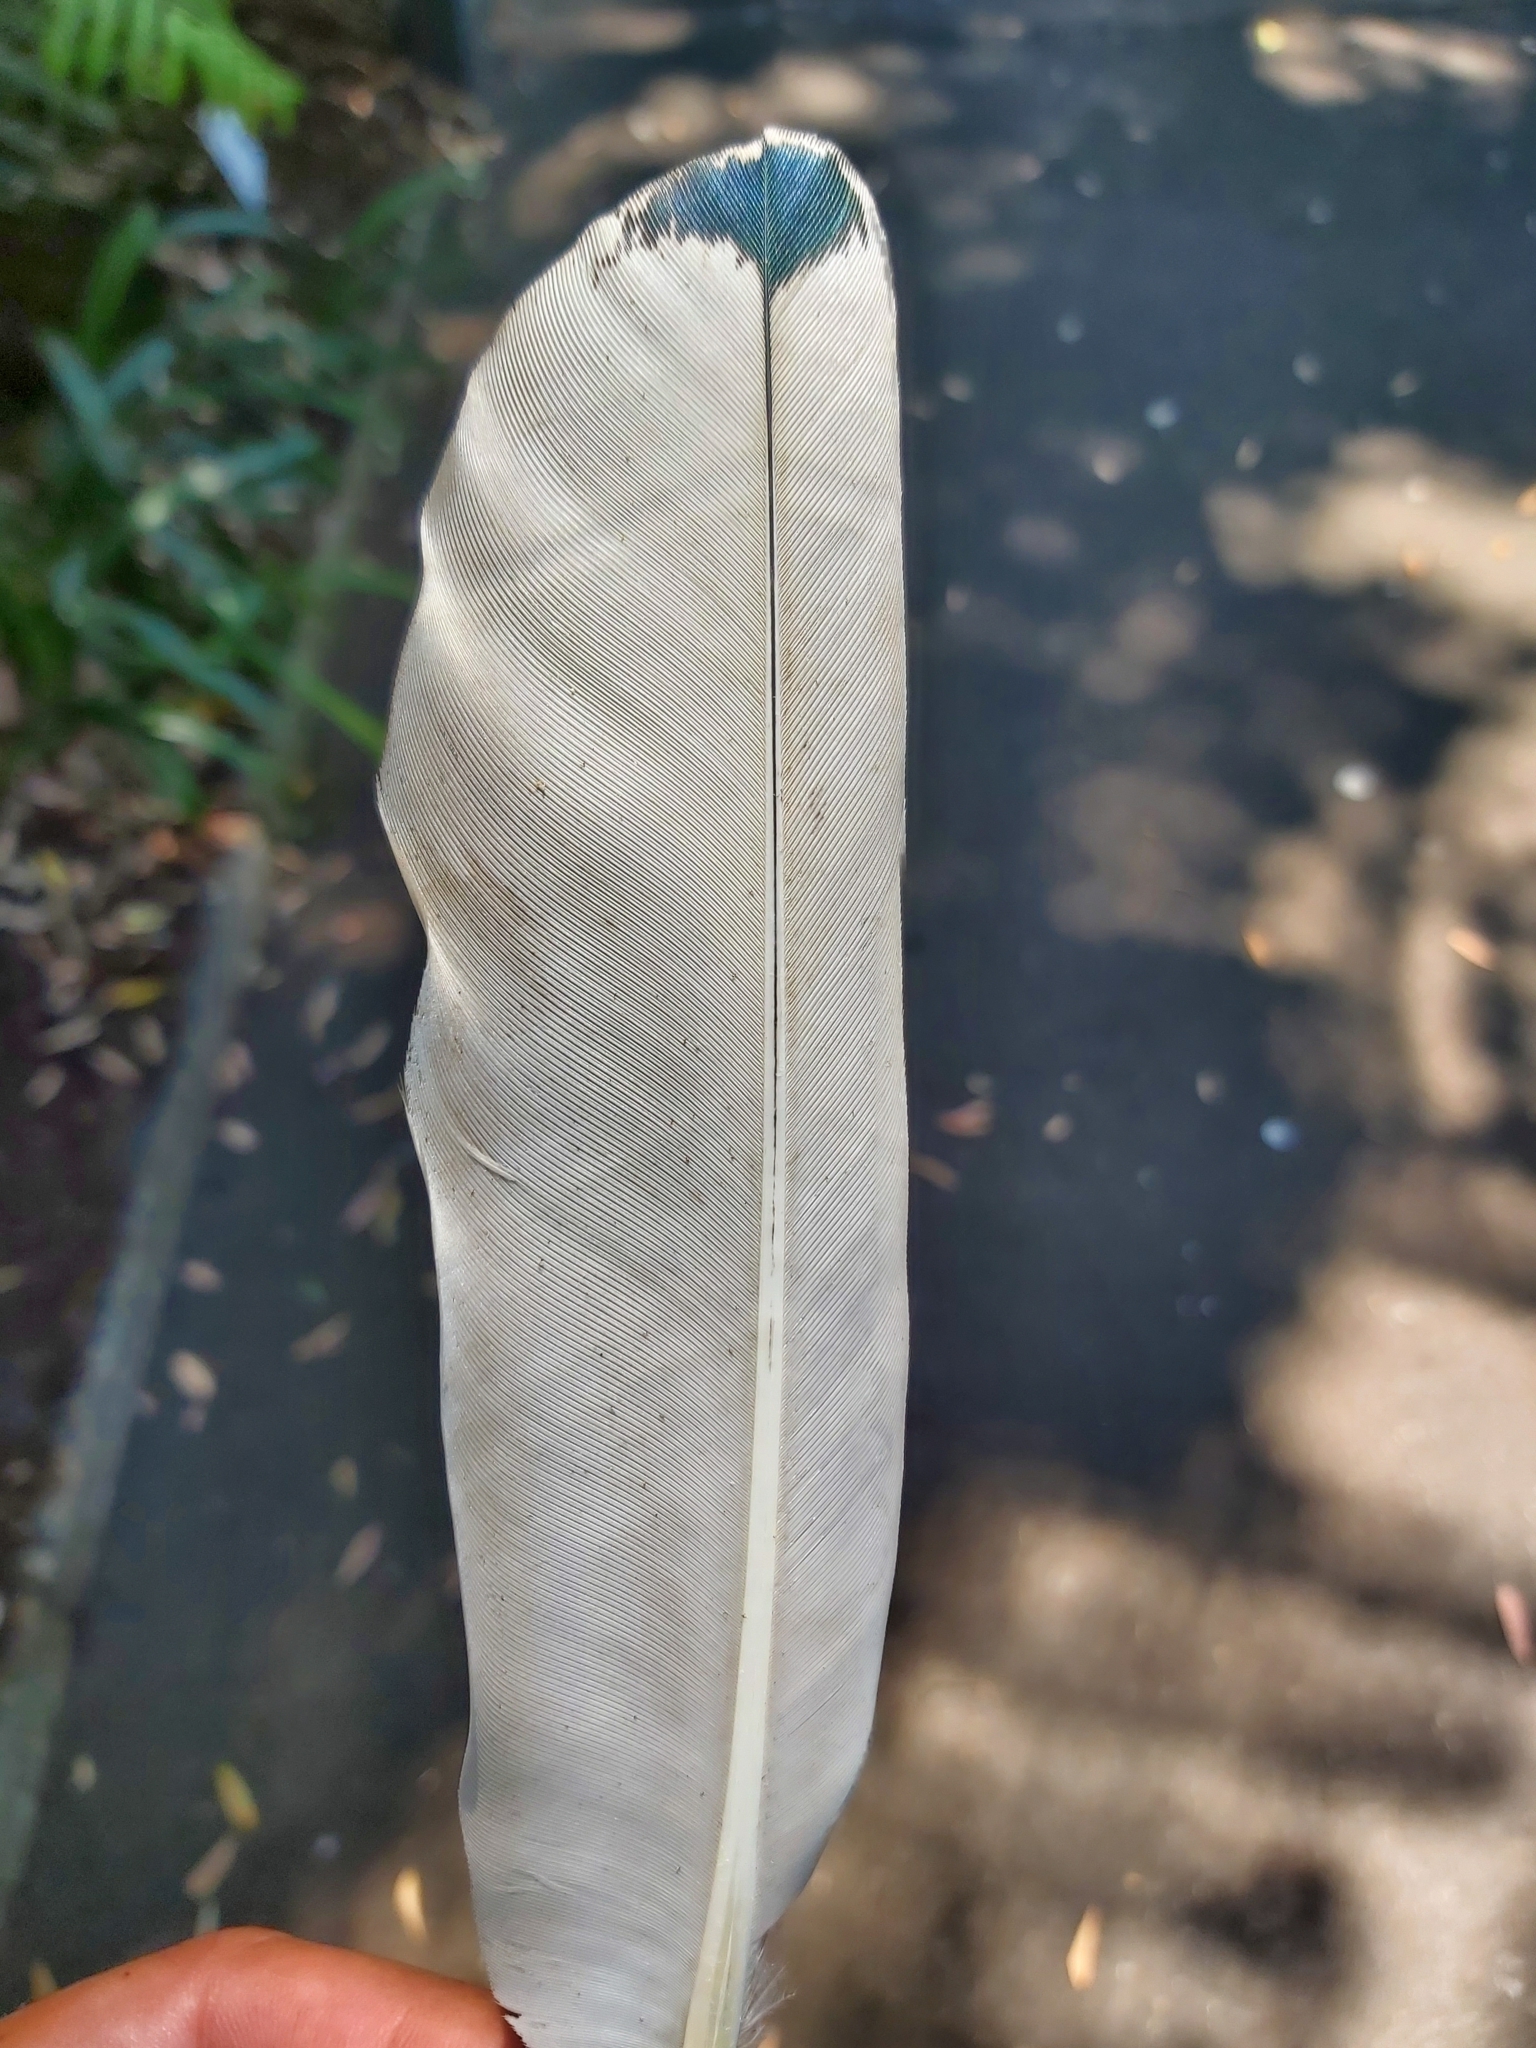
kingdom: Animalia
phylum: Chordata
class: Aves
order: Pelecaniformes
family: Threskiornithidae
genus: Threskiornis
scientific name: Threskiornis molucca
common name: Australian white ibis
